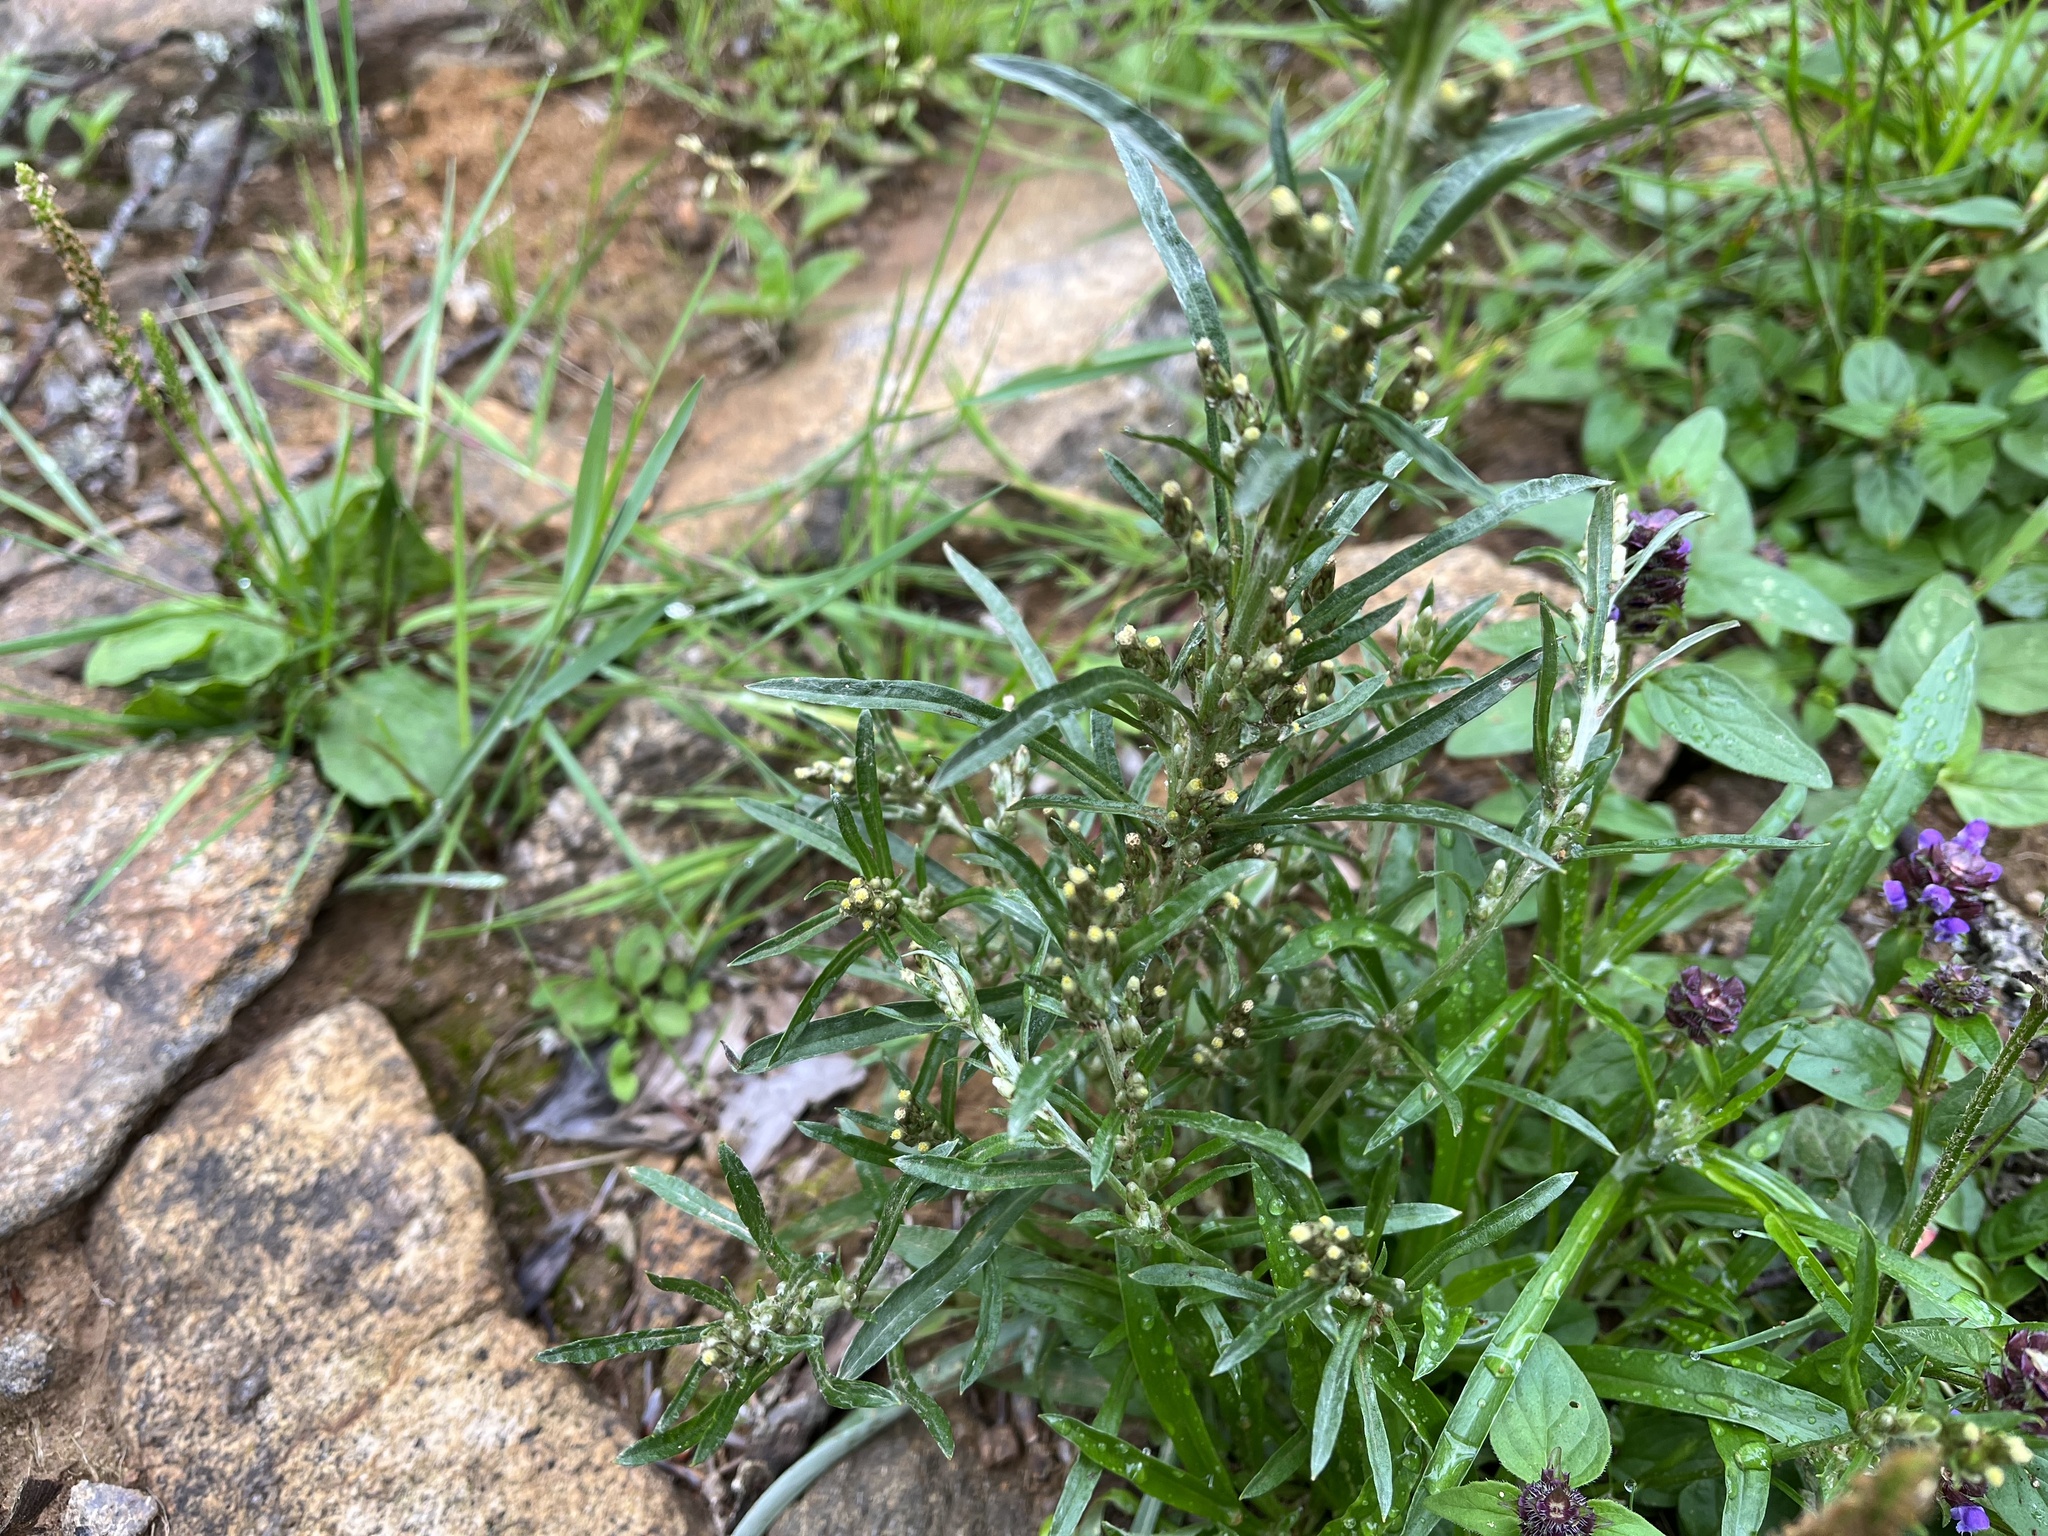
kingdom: Plantae
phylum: Tracheophyta
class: Magnoliopsida
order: Asterales
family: Asteraceae
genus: Omalotheca
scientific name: Omalotheca sylvatica
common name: Heath cudweed
